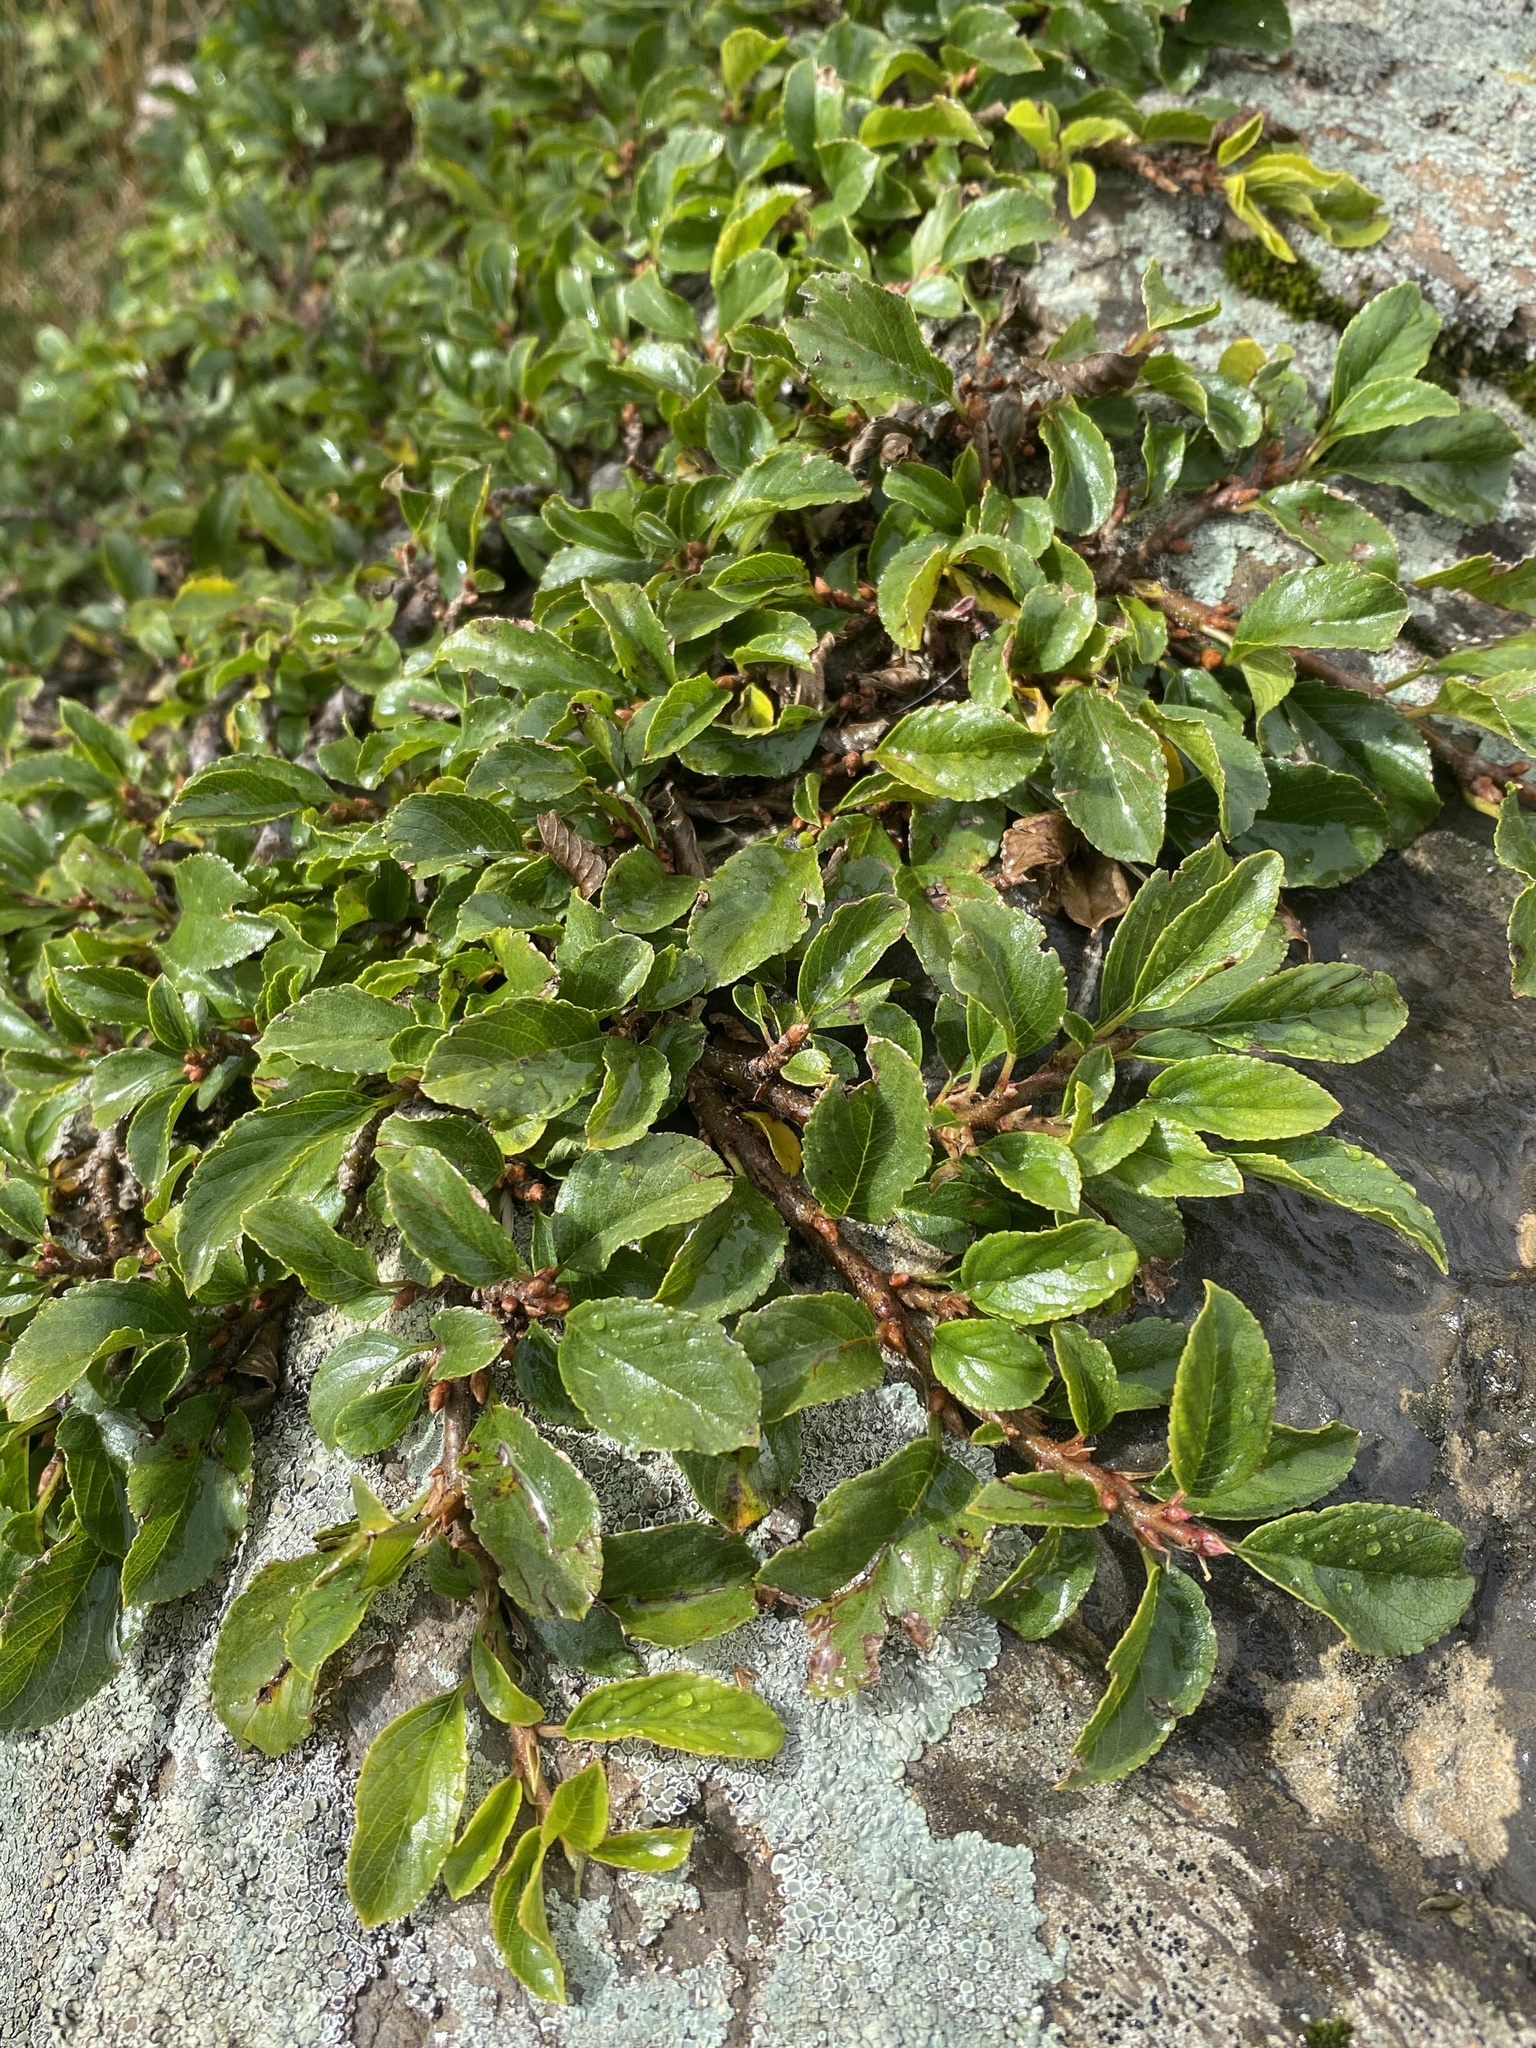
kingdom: Plantae
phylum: Tracheophyta
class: Magnoliopsida
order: Rosales
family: Rhamnaceae
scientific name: Rhamnaceae
